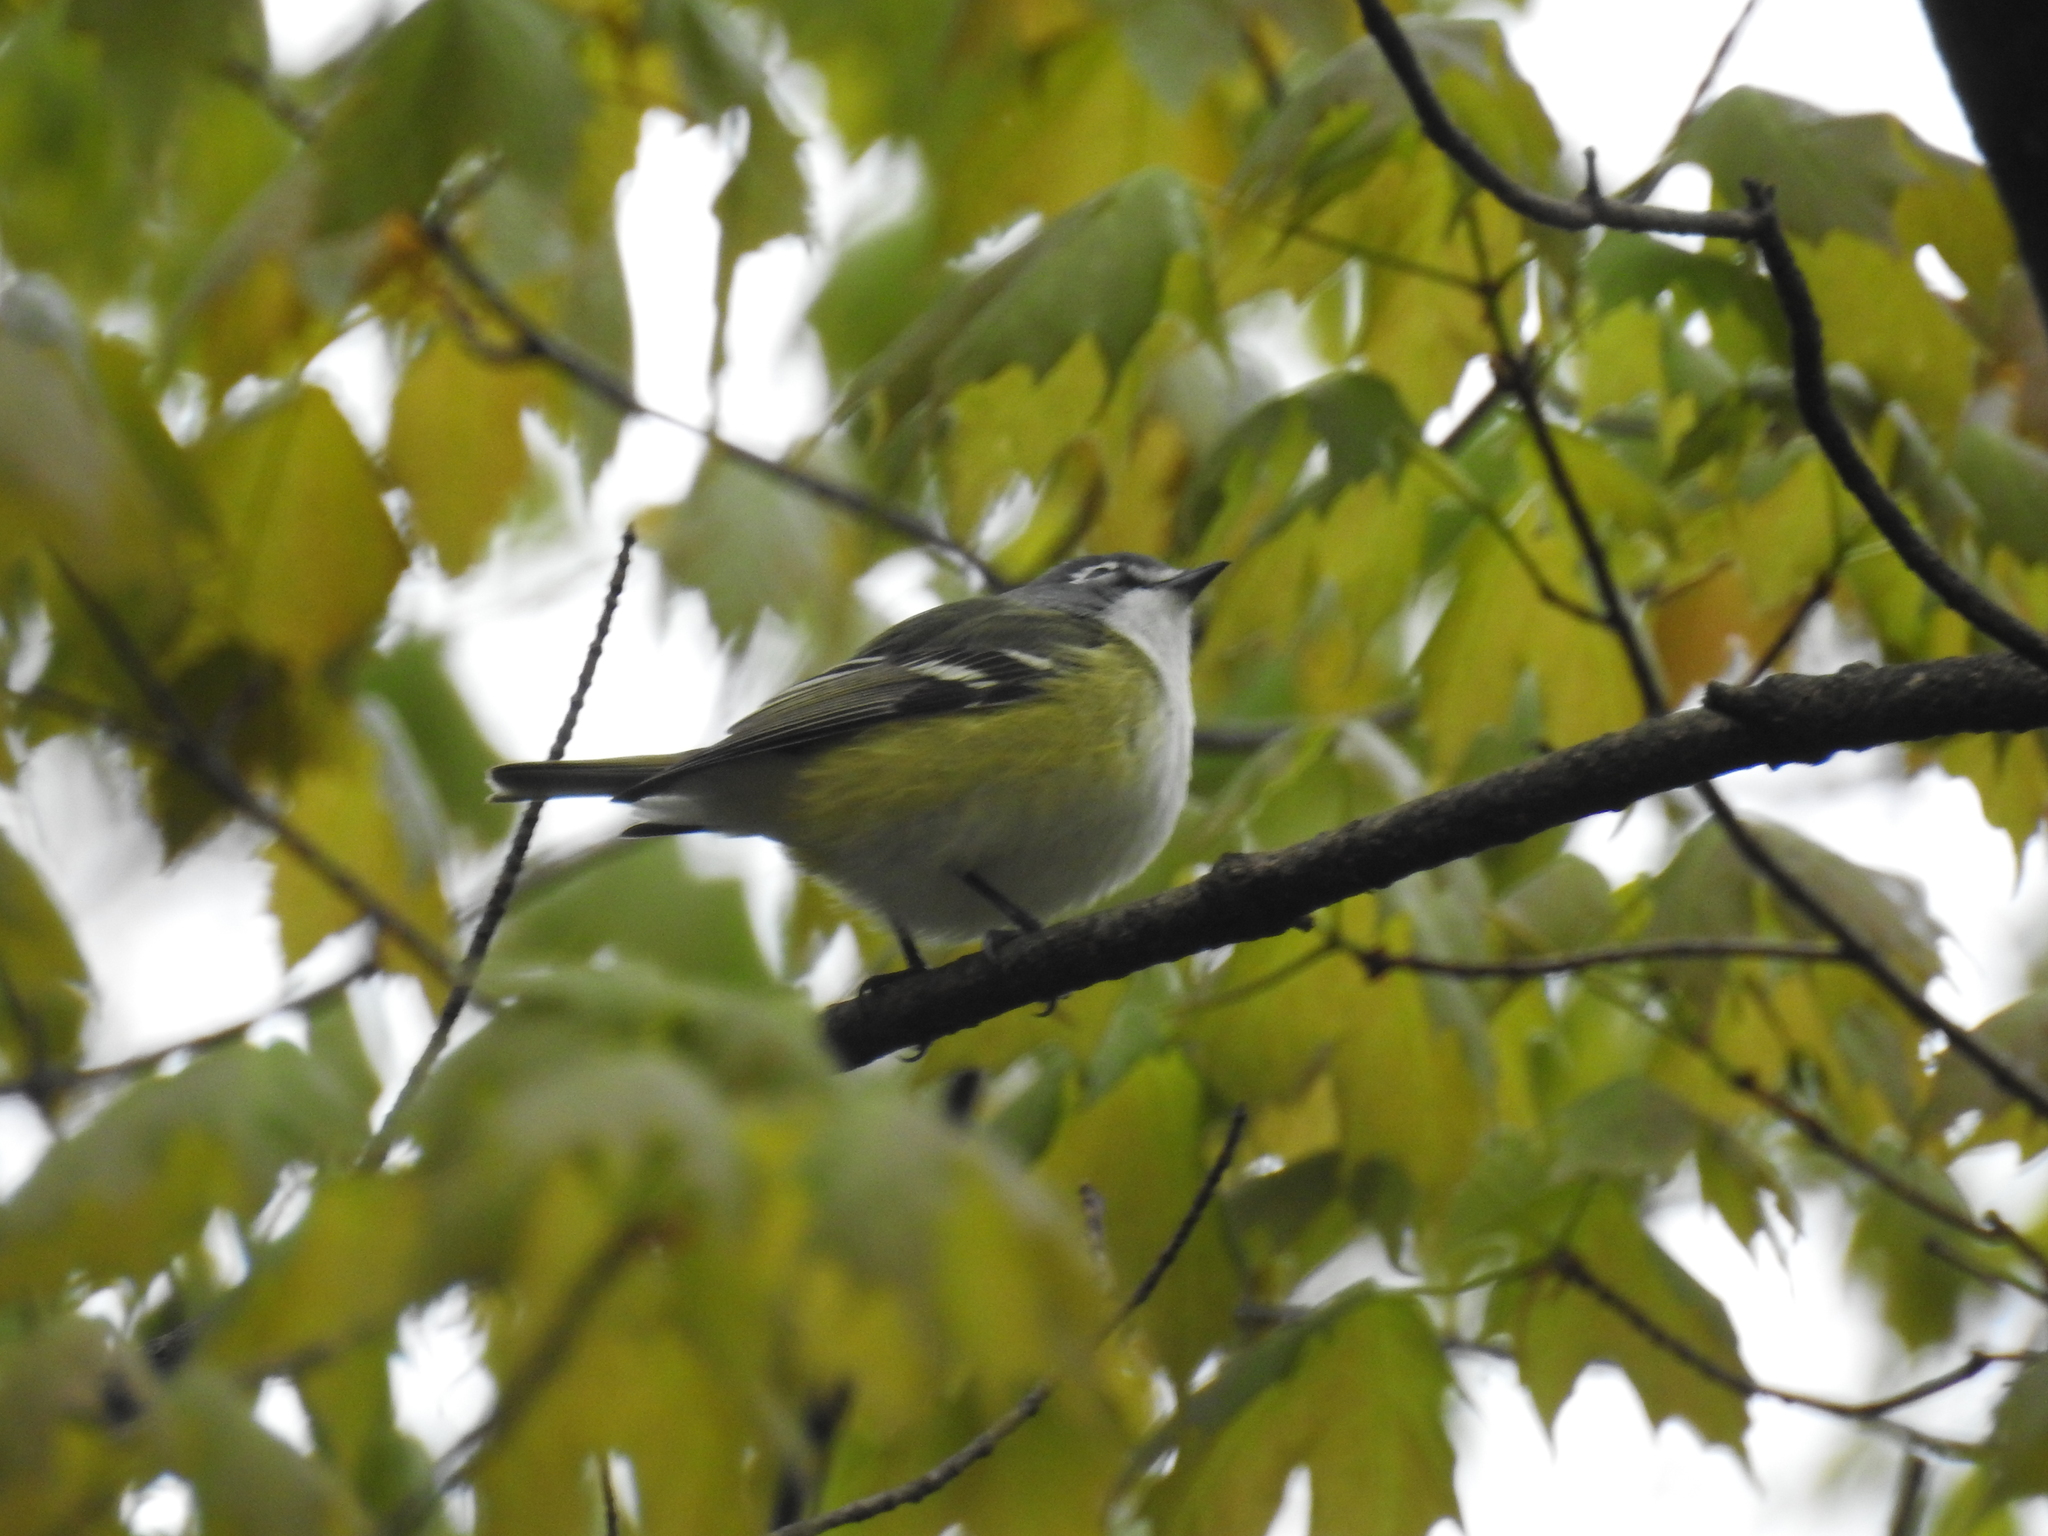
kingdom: Animalia
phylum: Chordata
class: Aves
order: Passeriformes
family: Vireonidae
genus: Vireo
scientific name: Vireo solitarius
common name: Blue-headed vireo
